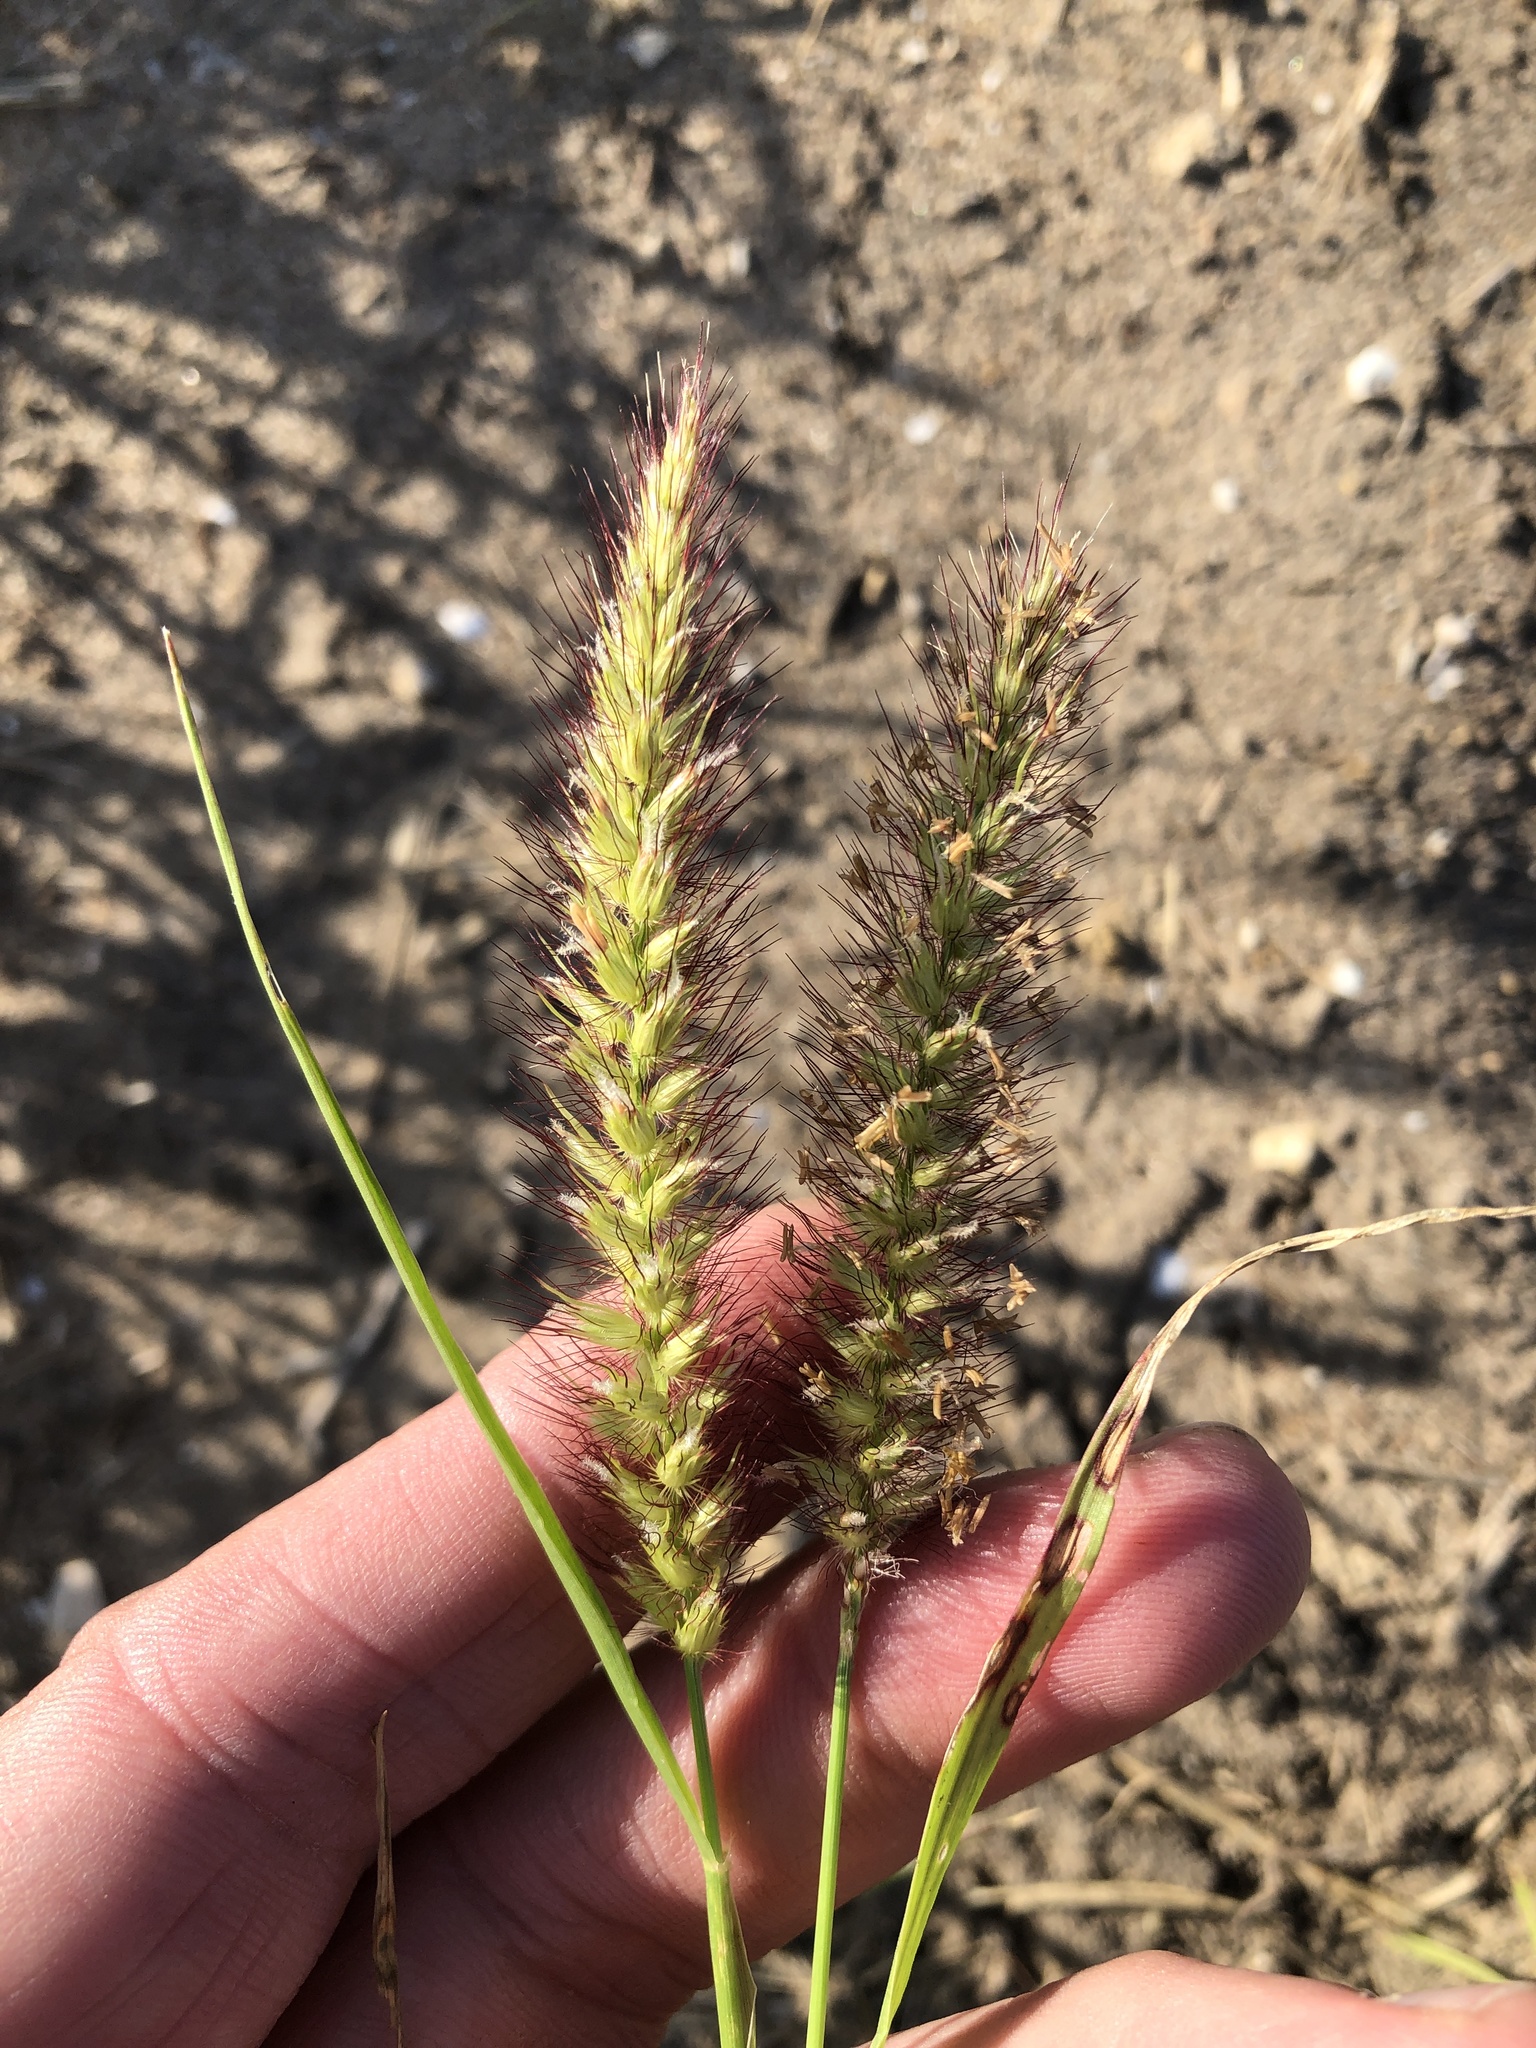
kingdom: Plantae
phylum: Tracheophyta
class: Liliopsida
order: Poales
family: Poaceae
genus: Cenchrus
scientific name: Cenchrus ciliaris
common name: Buffelgrass
